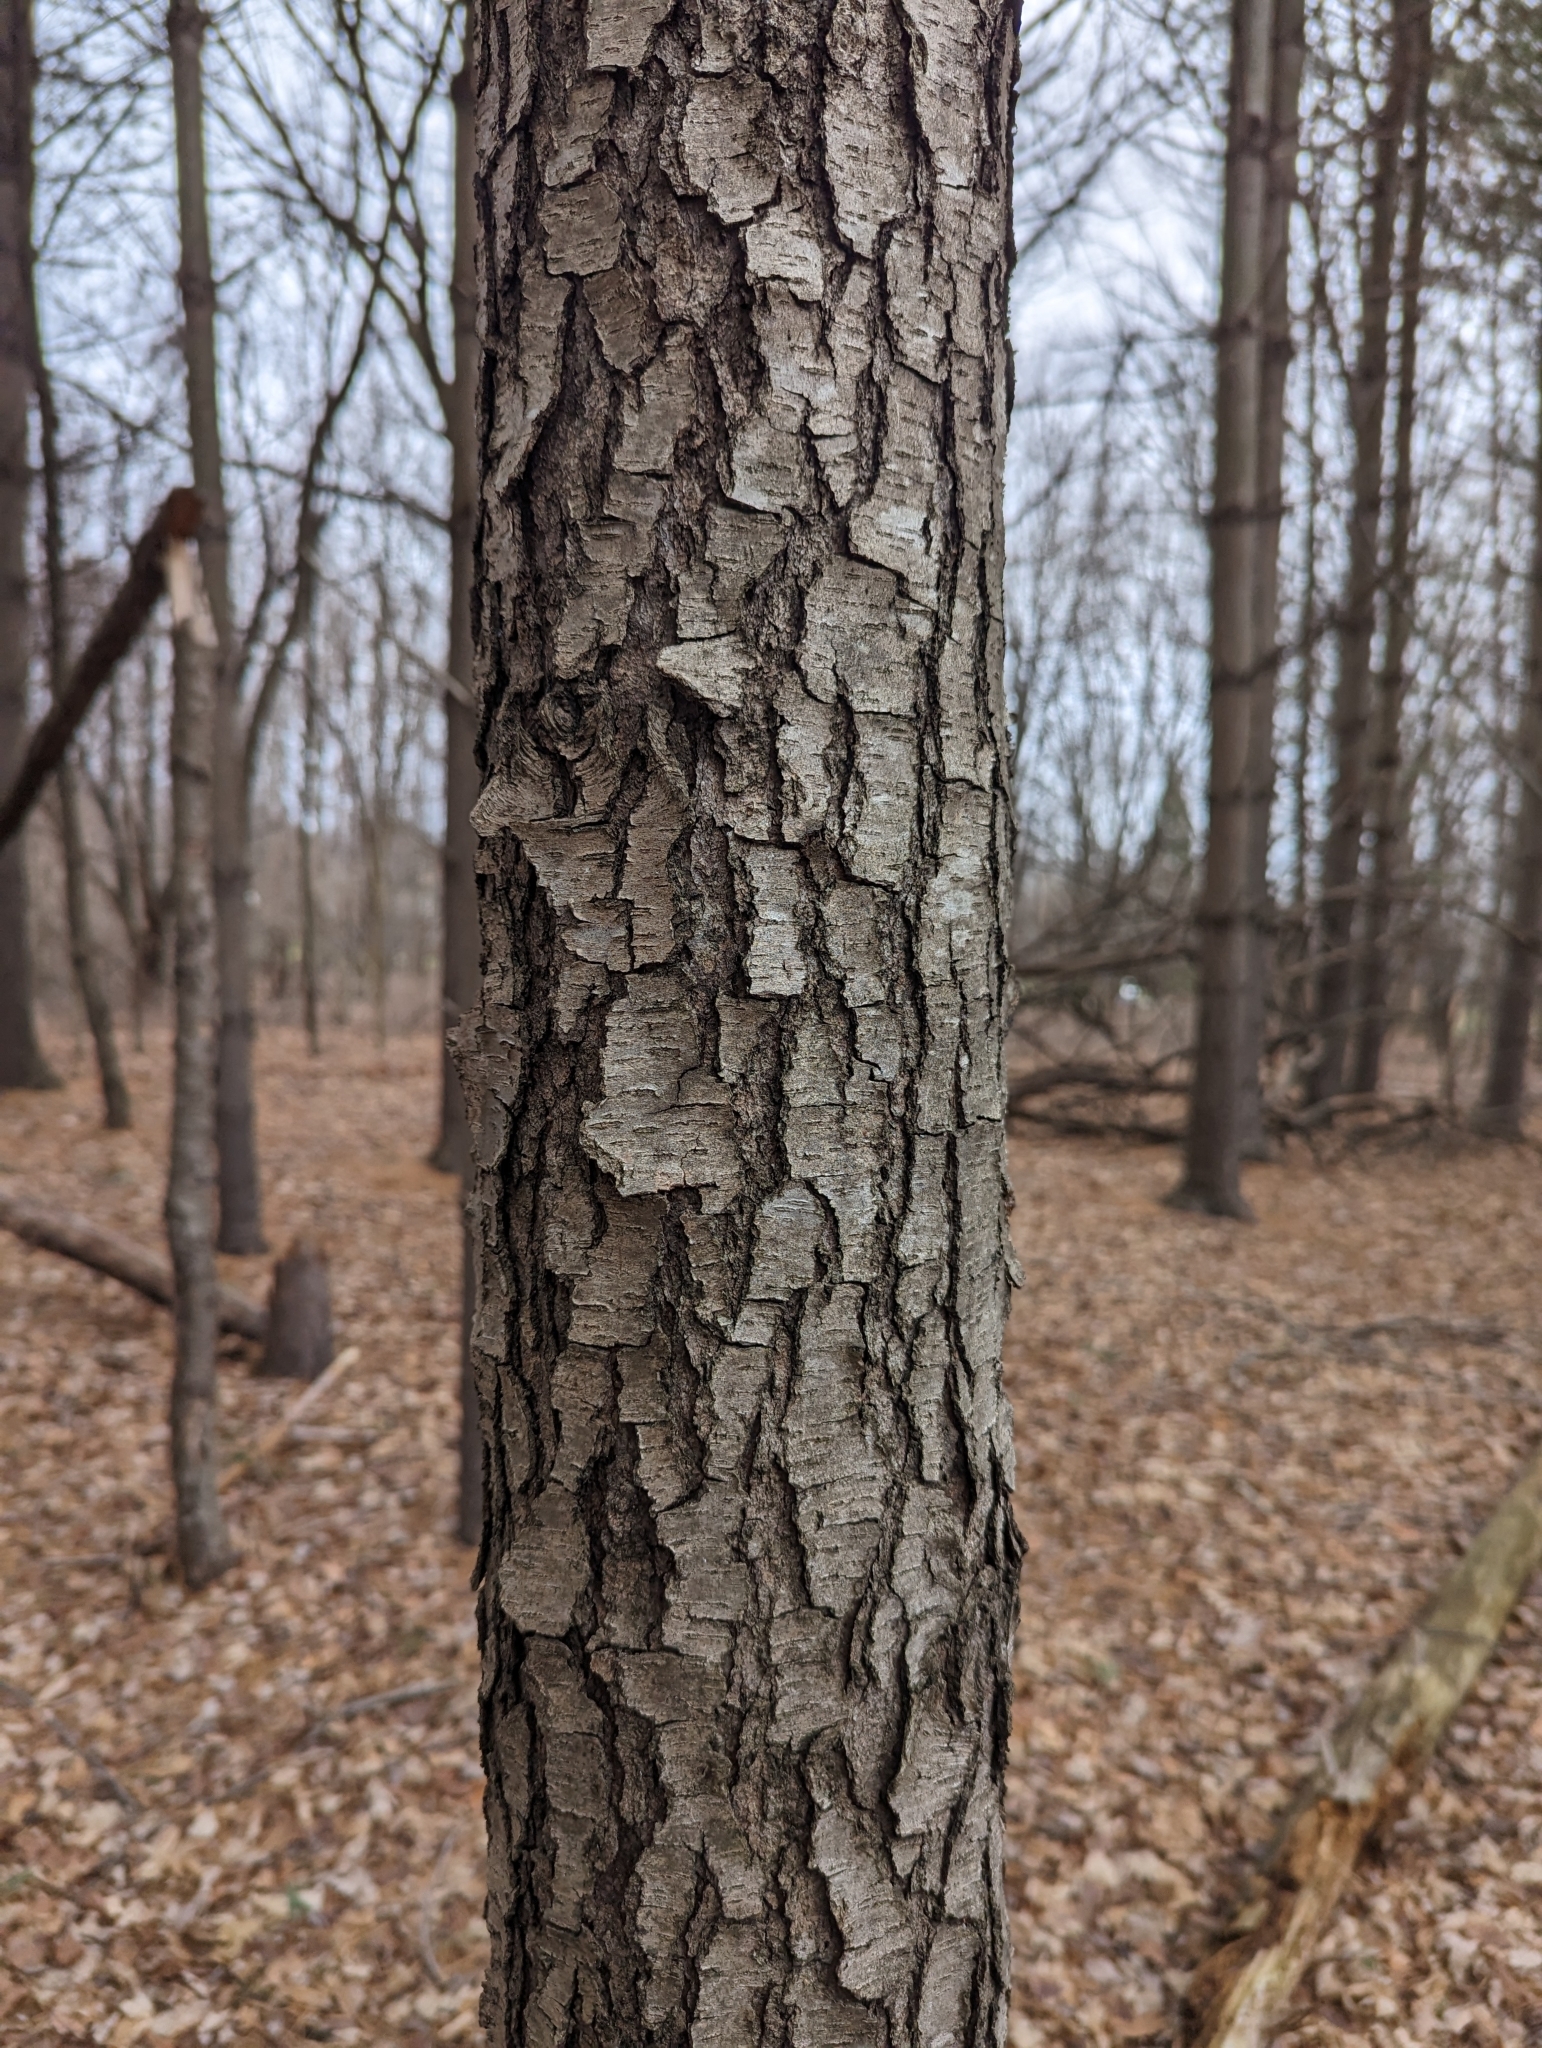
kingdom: Plantae
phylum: Tracheophyta
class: Magnoliopsida
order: Rosales
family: Rosaceae
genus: Prunus
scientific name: Prunus serotina
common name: Black cherry
